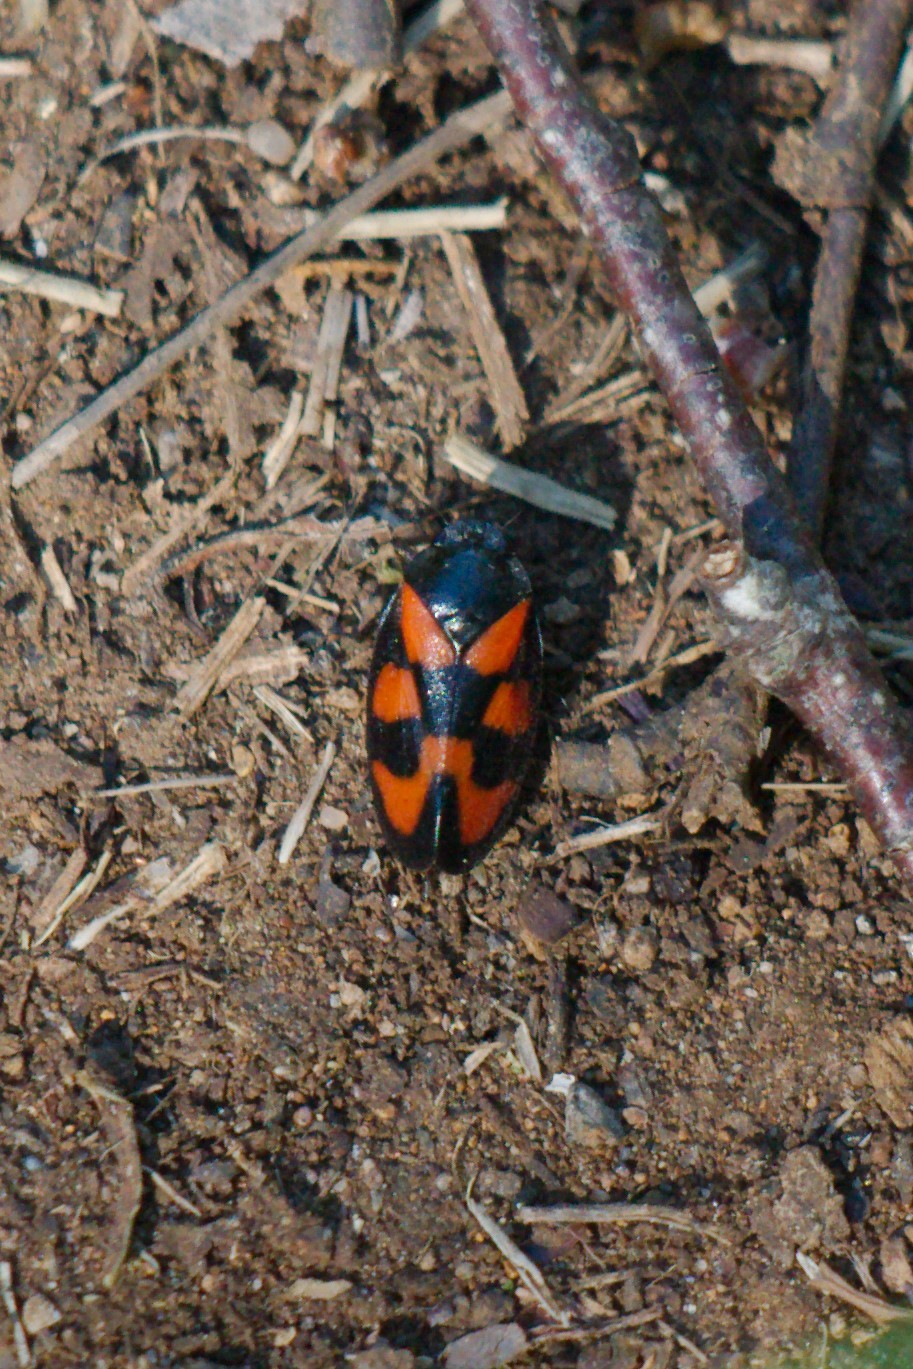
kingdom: Animalia
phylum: Arthropoda
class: Insecta
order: Hemiptera
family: Cercopidae
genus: Cercopis
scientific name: Cercopis vulnerata
